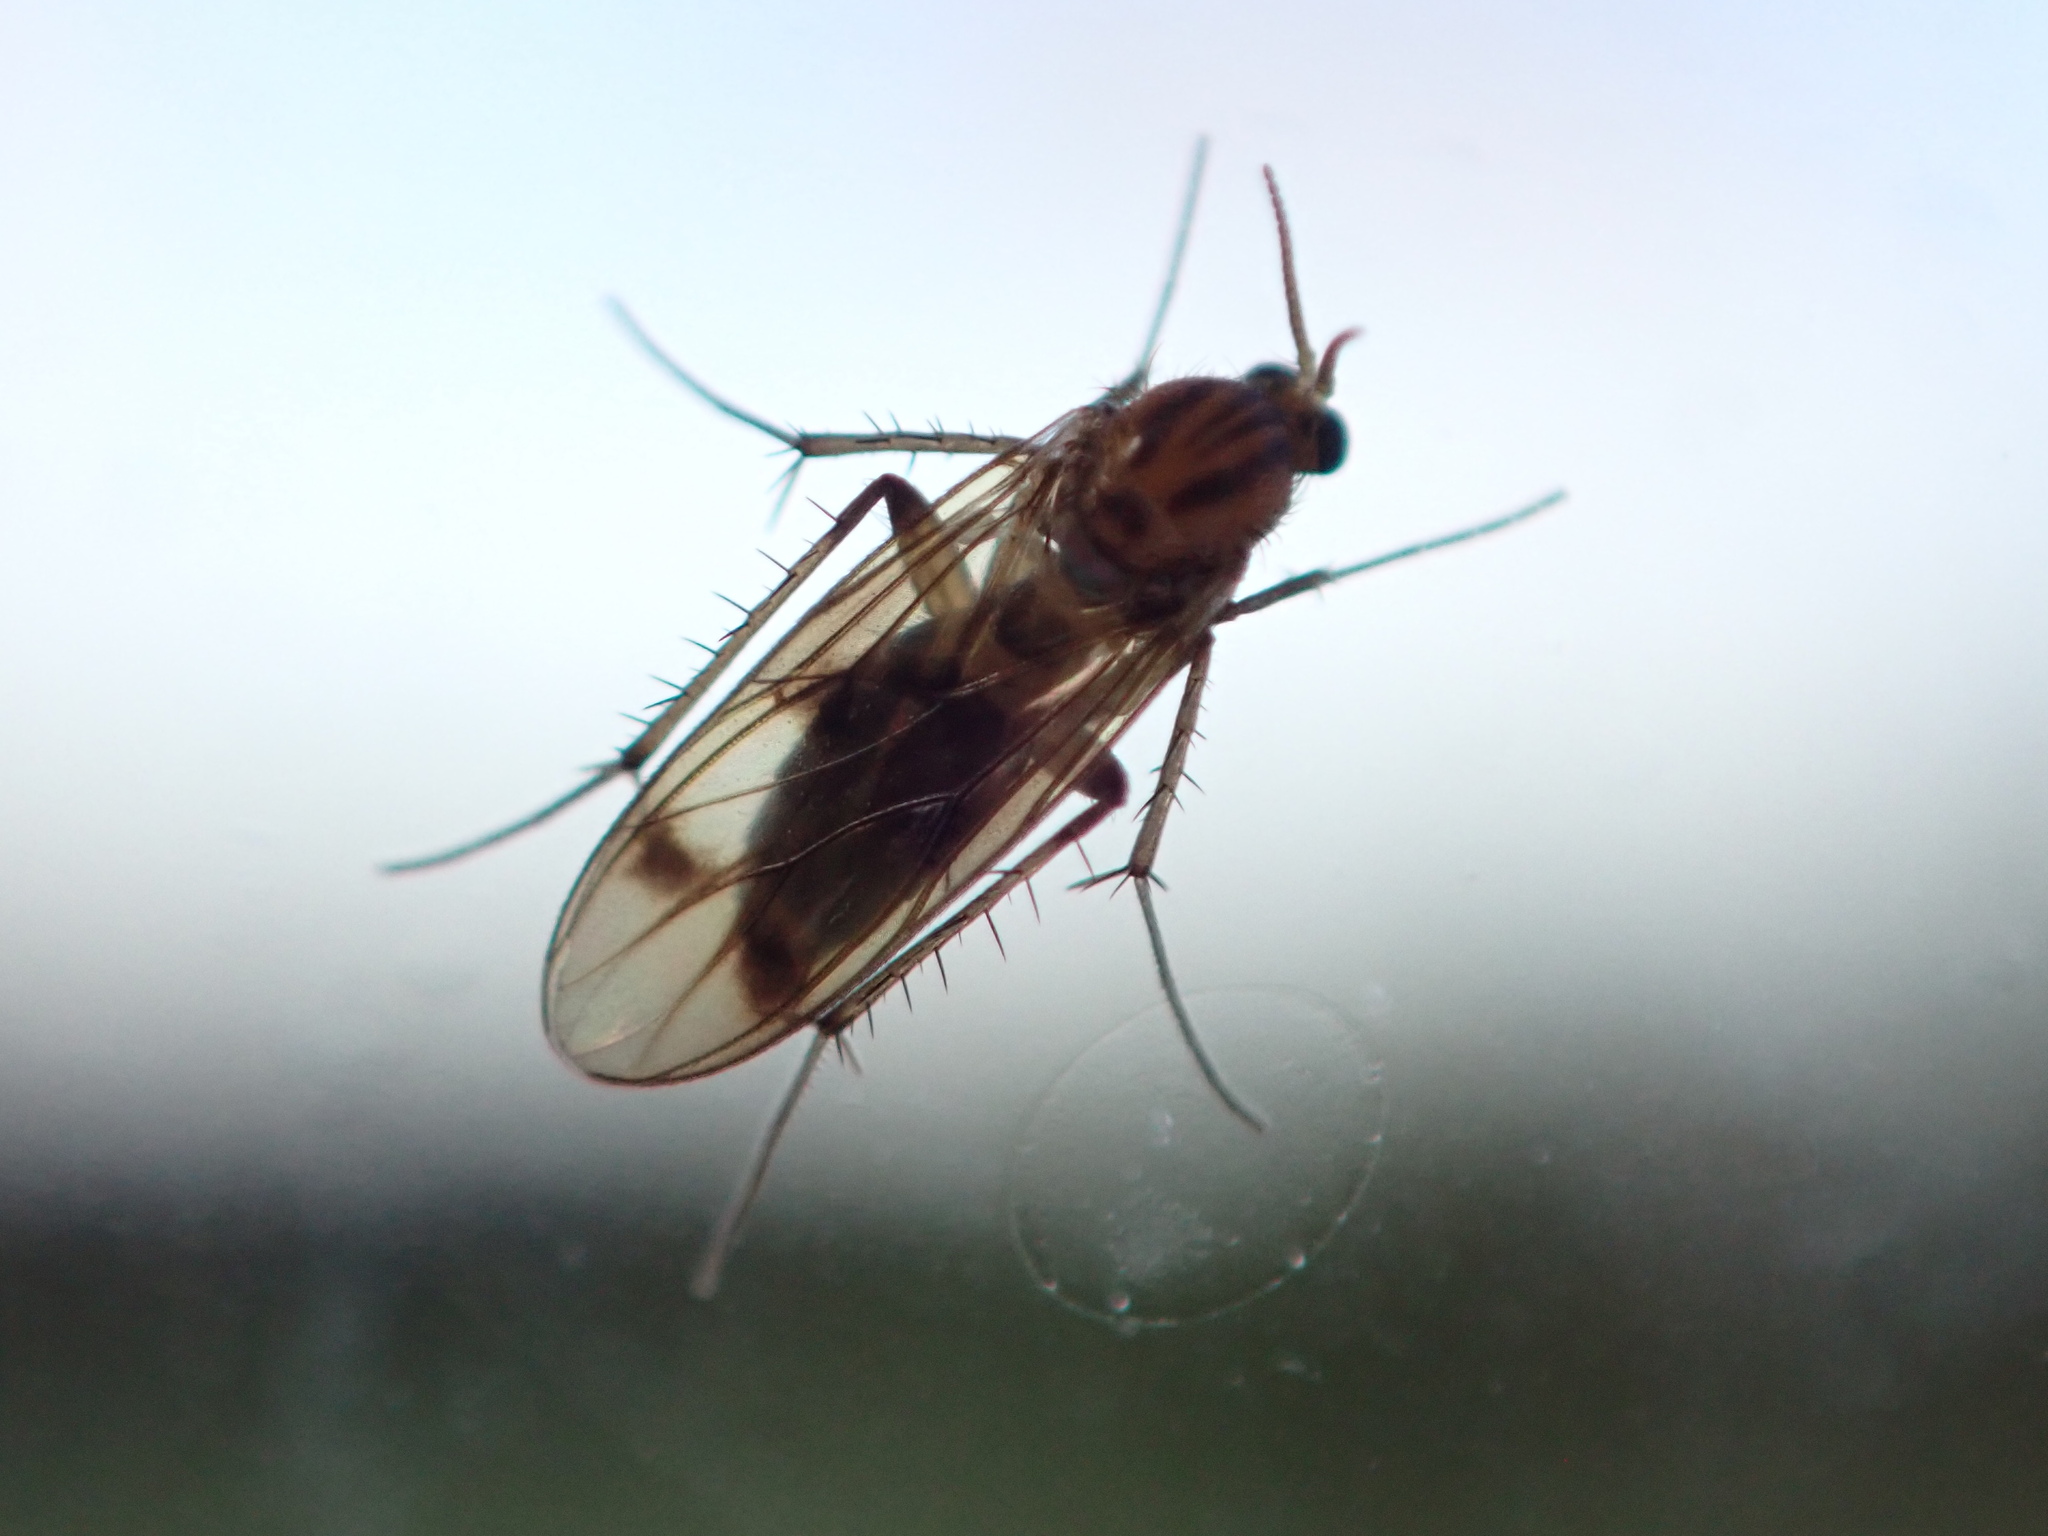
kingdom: Animalia
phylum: Arthropoda
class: Insecta
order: Diptera
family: Mycetophilidae
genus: Anomalomyia
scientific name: Anomalomyia guttata
